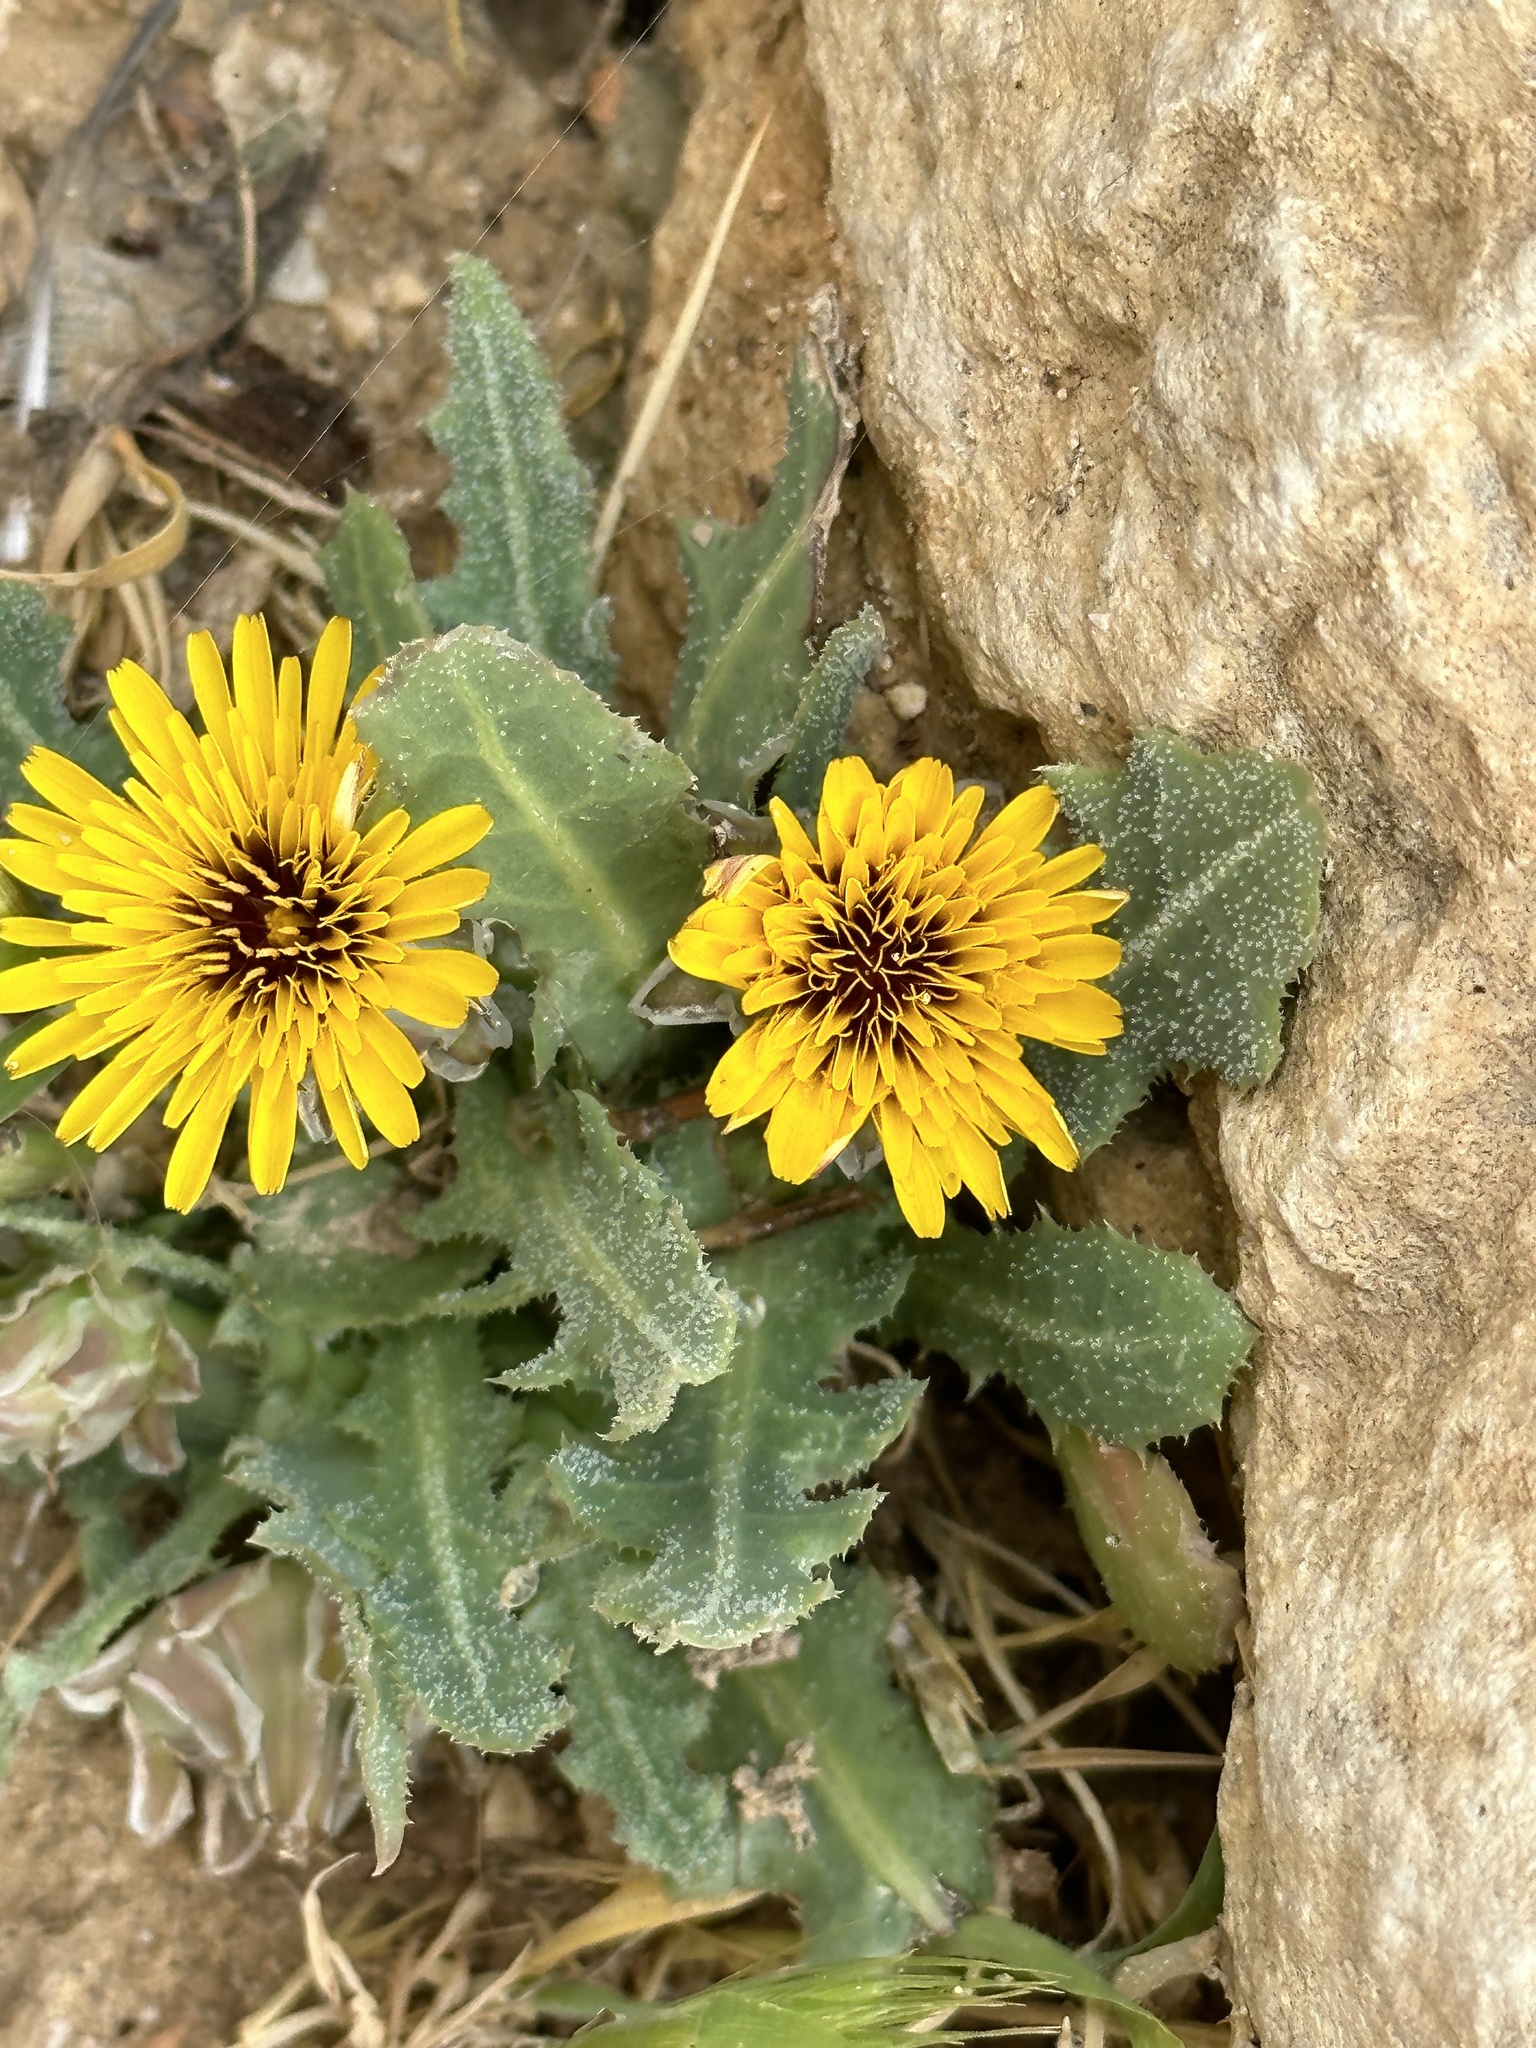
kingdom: Plantae
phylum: Tracheophyta
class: Magnoliopsida
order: Asterales
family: Asteraceae
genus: Reichardia
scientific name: Reichardia tingitana
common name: Reichardia
